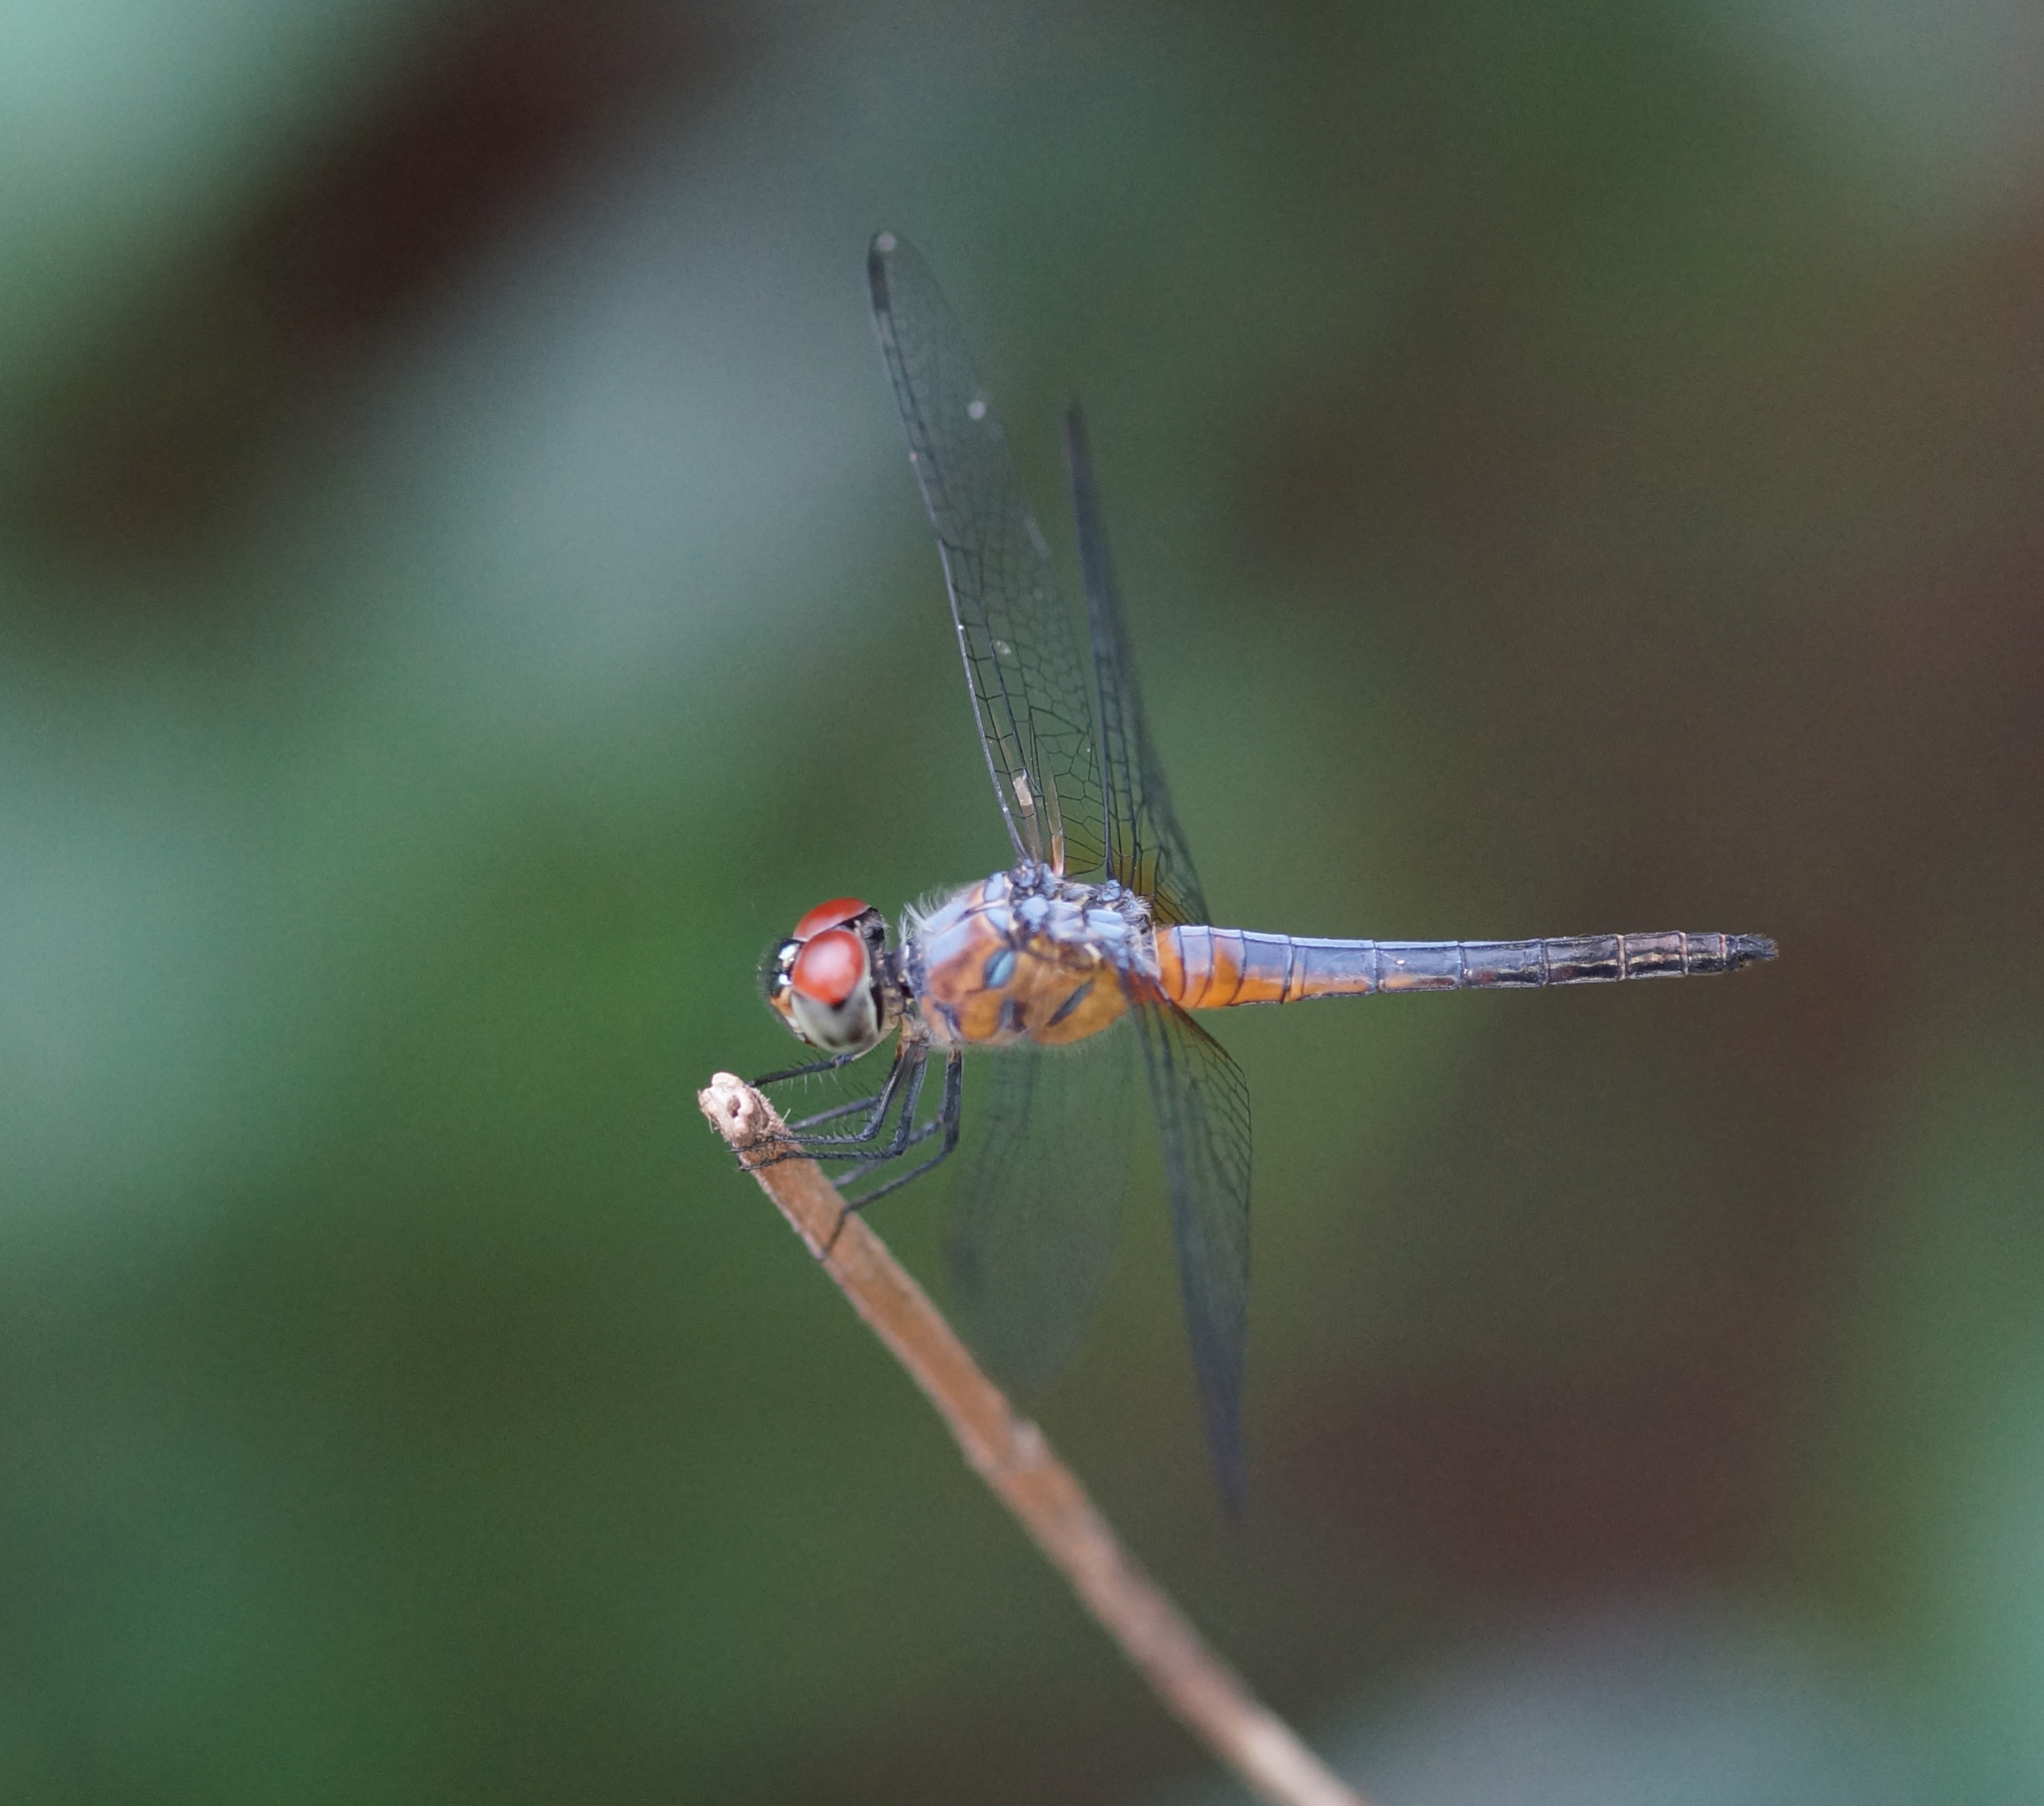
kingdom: Animalia
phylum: Arthropoda
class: Insecta
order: Odonata
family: Libellulidae
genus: Brachydiplax
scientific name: Brachydiplax chalybea
